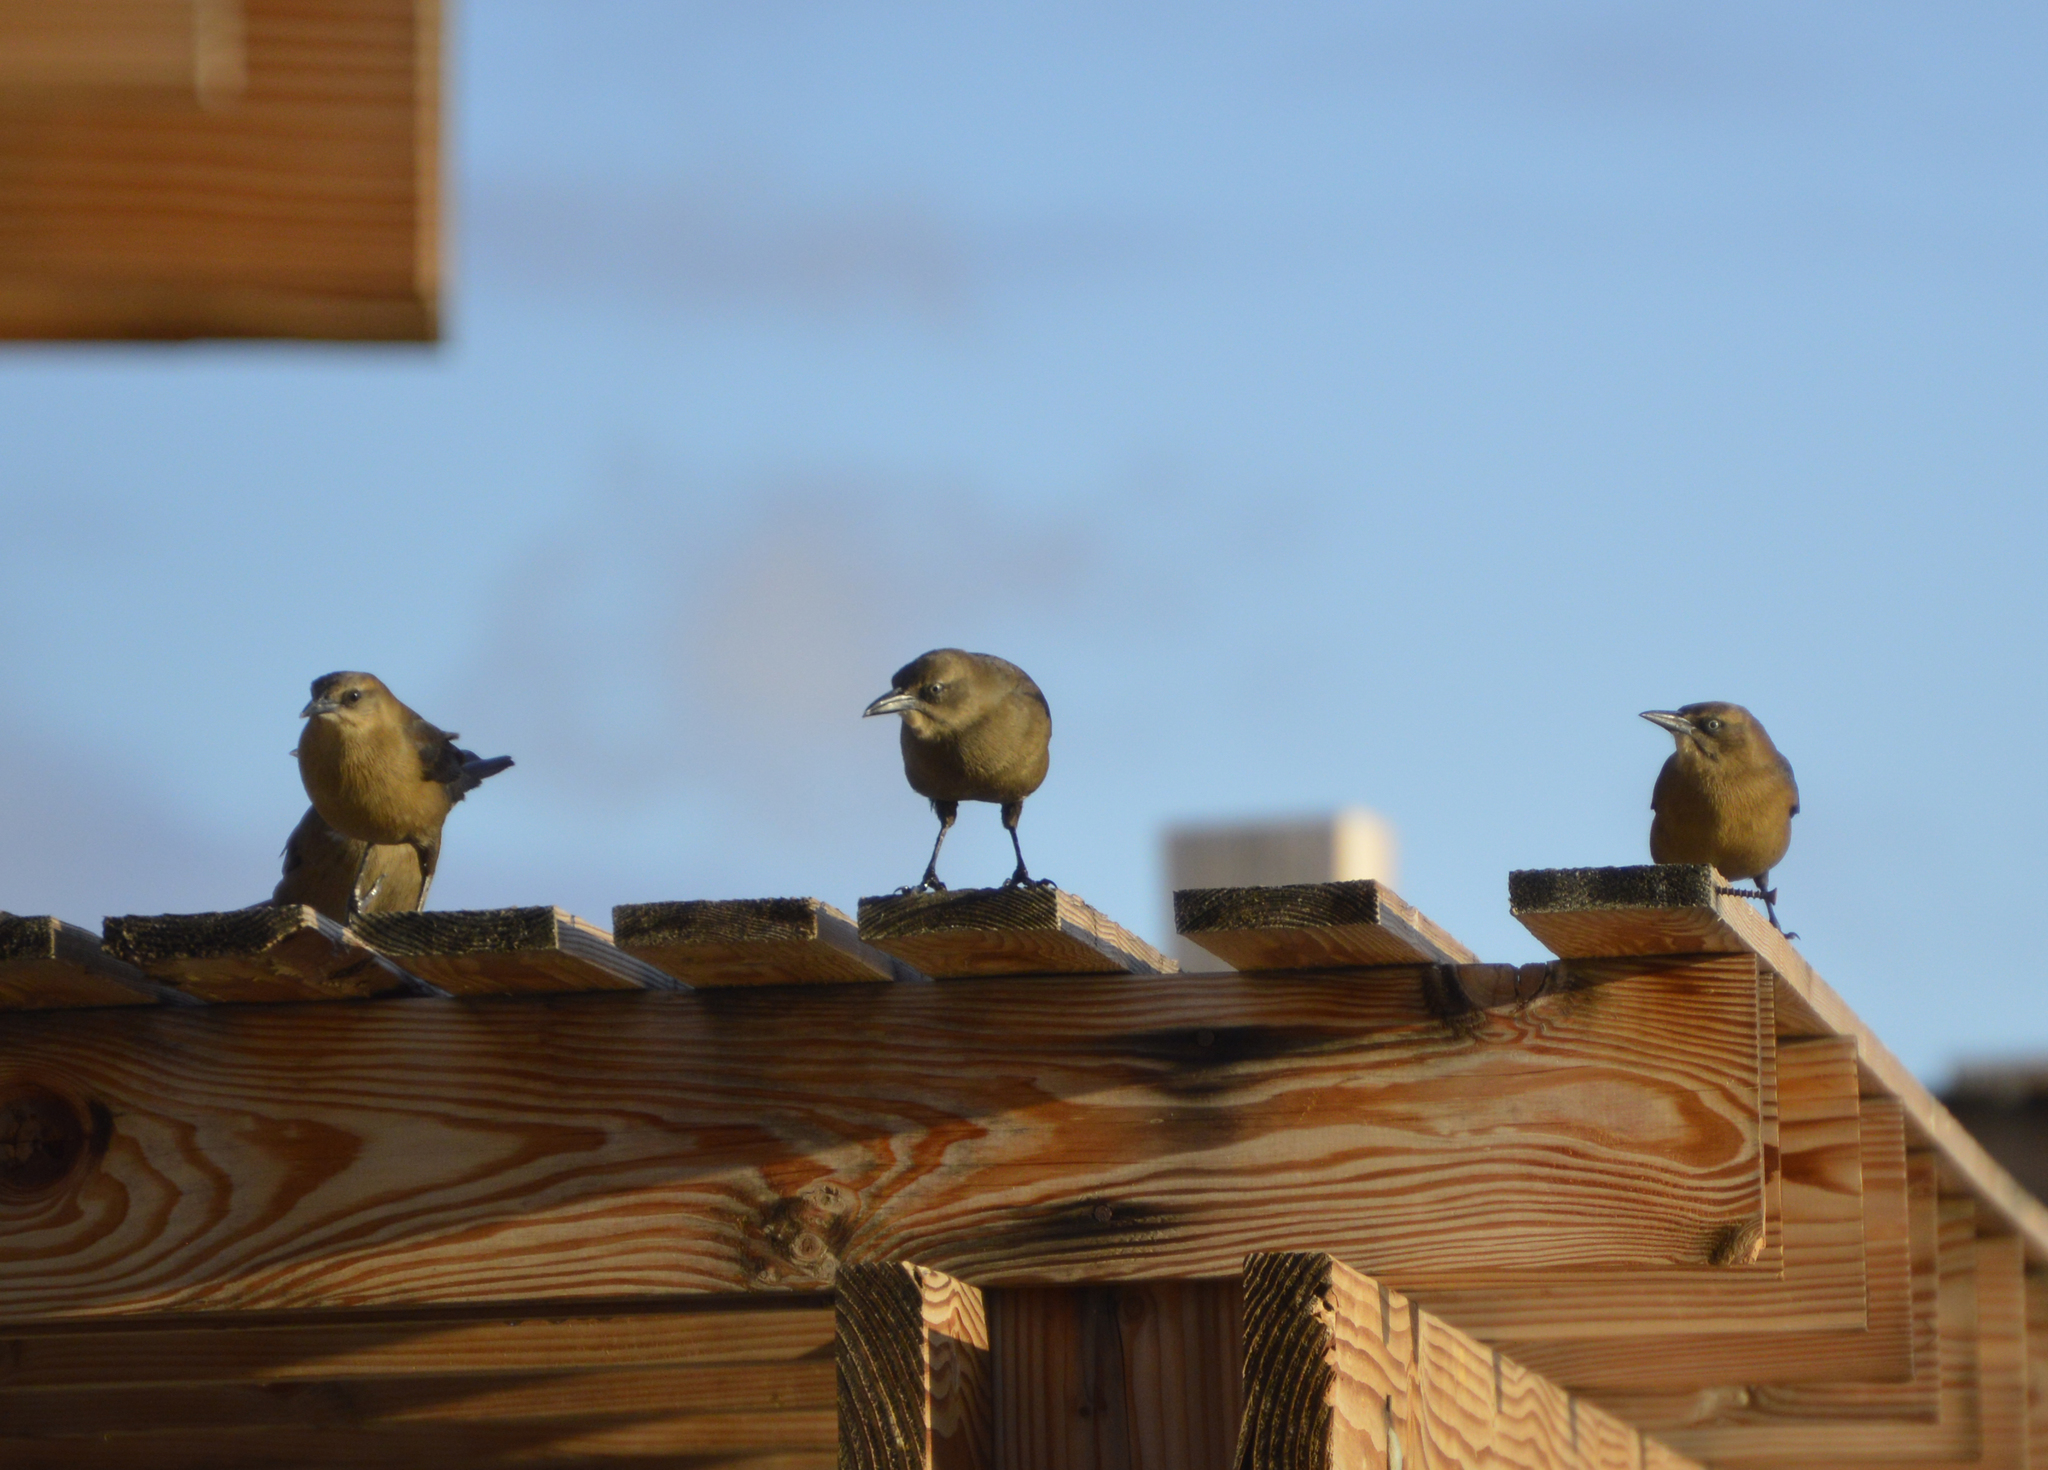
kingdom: Animalia
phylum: Chordata
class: Aves
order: Passeriformes
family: Icteridae
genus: Quiscalus
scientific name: Quiscalus mexicanus
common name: Great-tailed grackle
